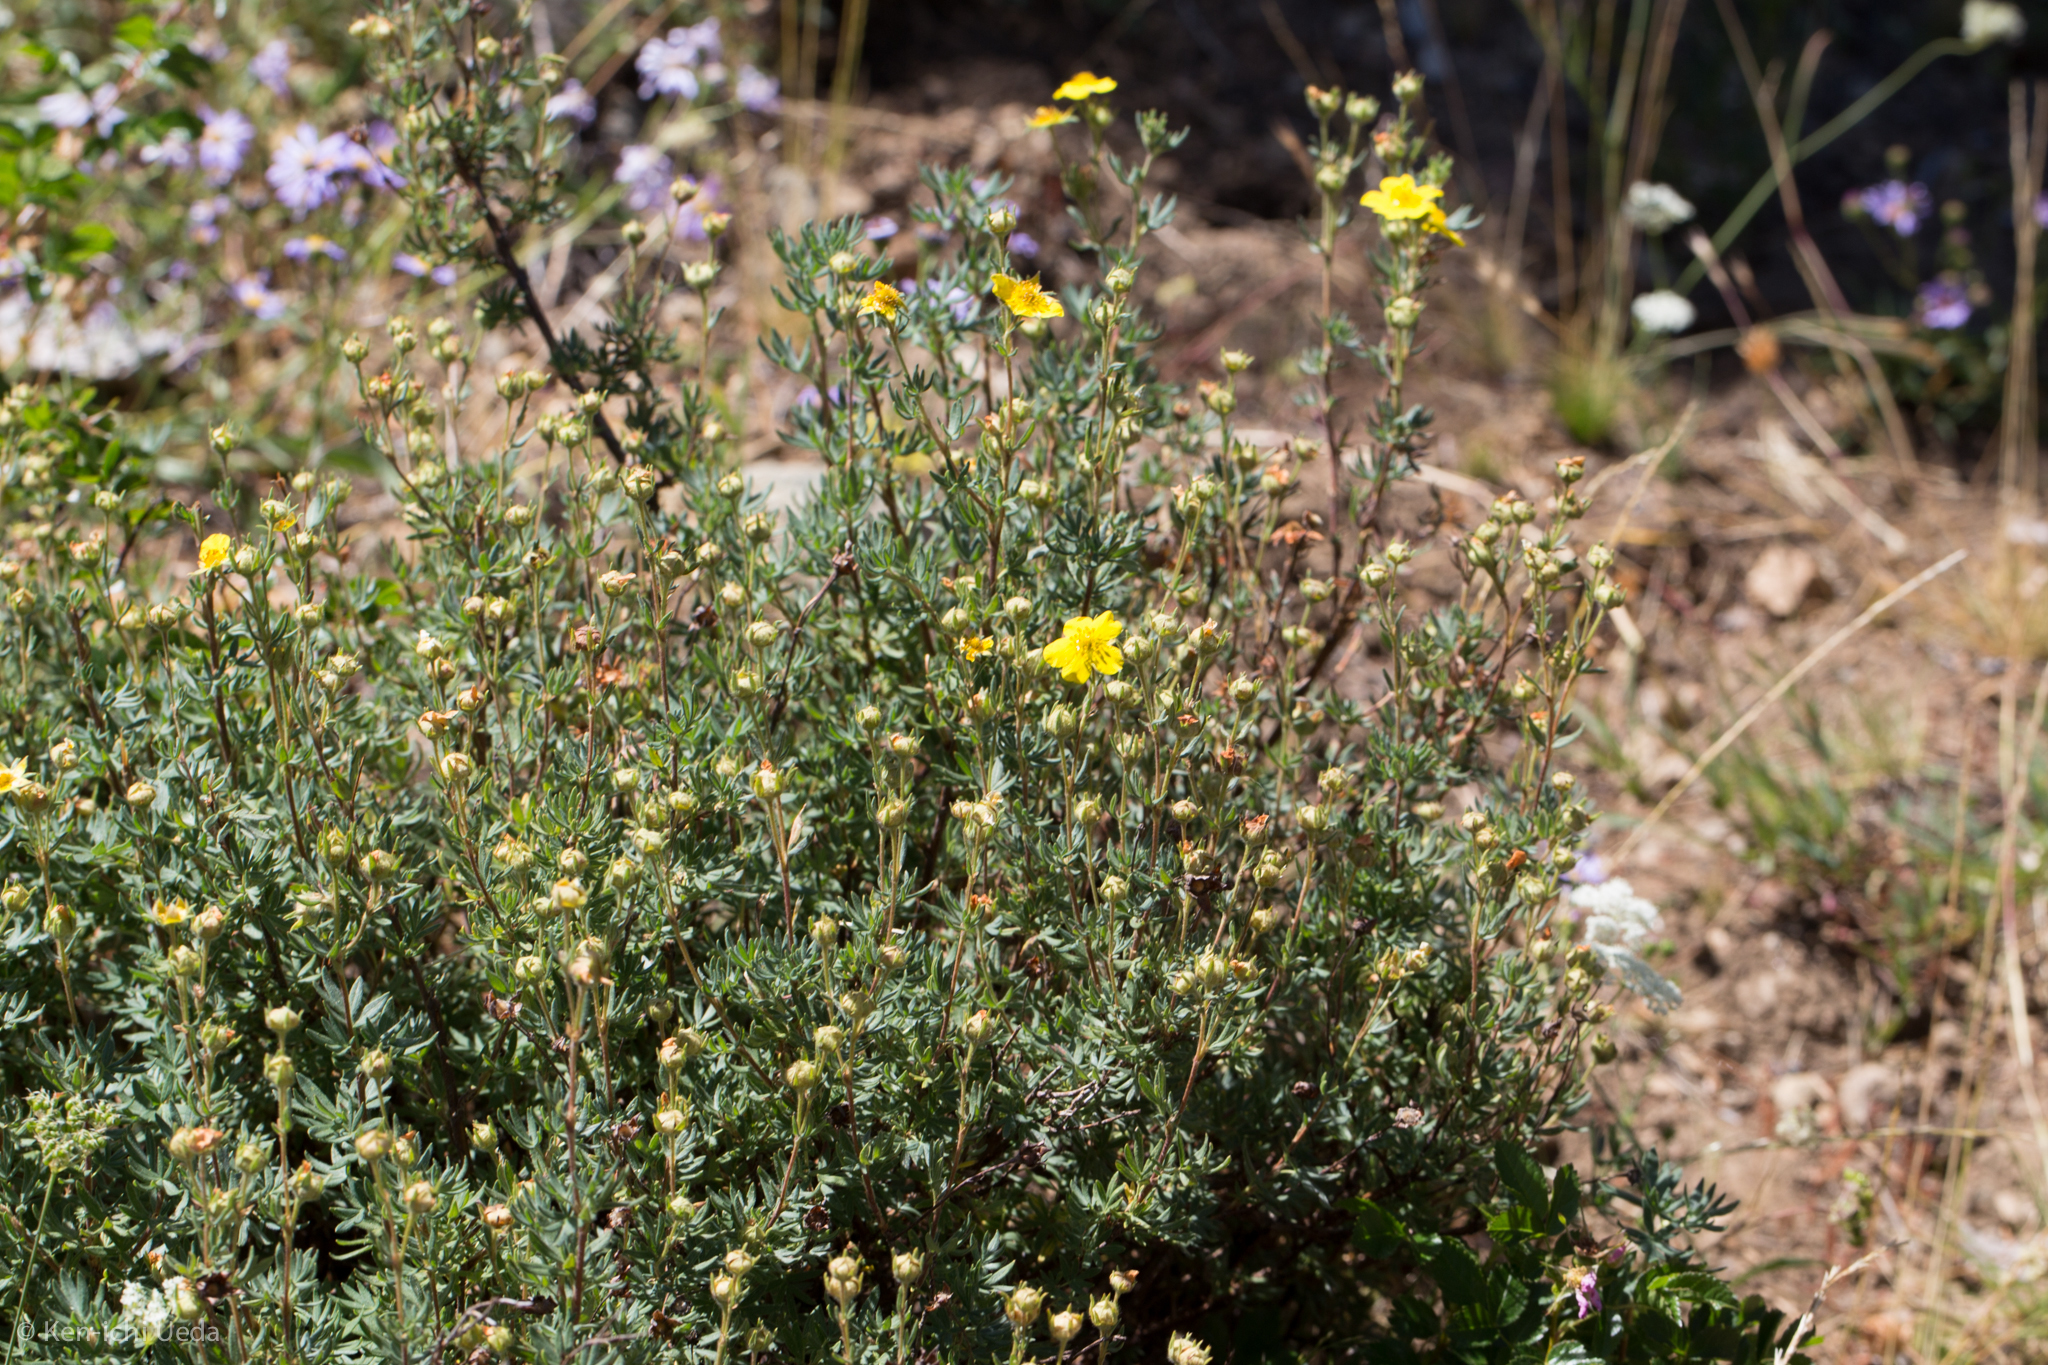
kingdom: Plantae
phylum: Tracheophyta
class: Magnoliopsida
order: Rosales
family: Rosaceae
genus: Dasiphora
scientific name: Dasiphora fruticosa
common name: Shrubby cinquefoil
